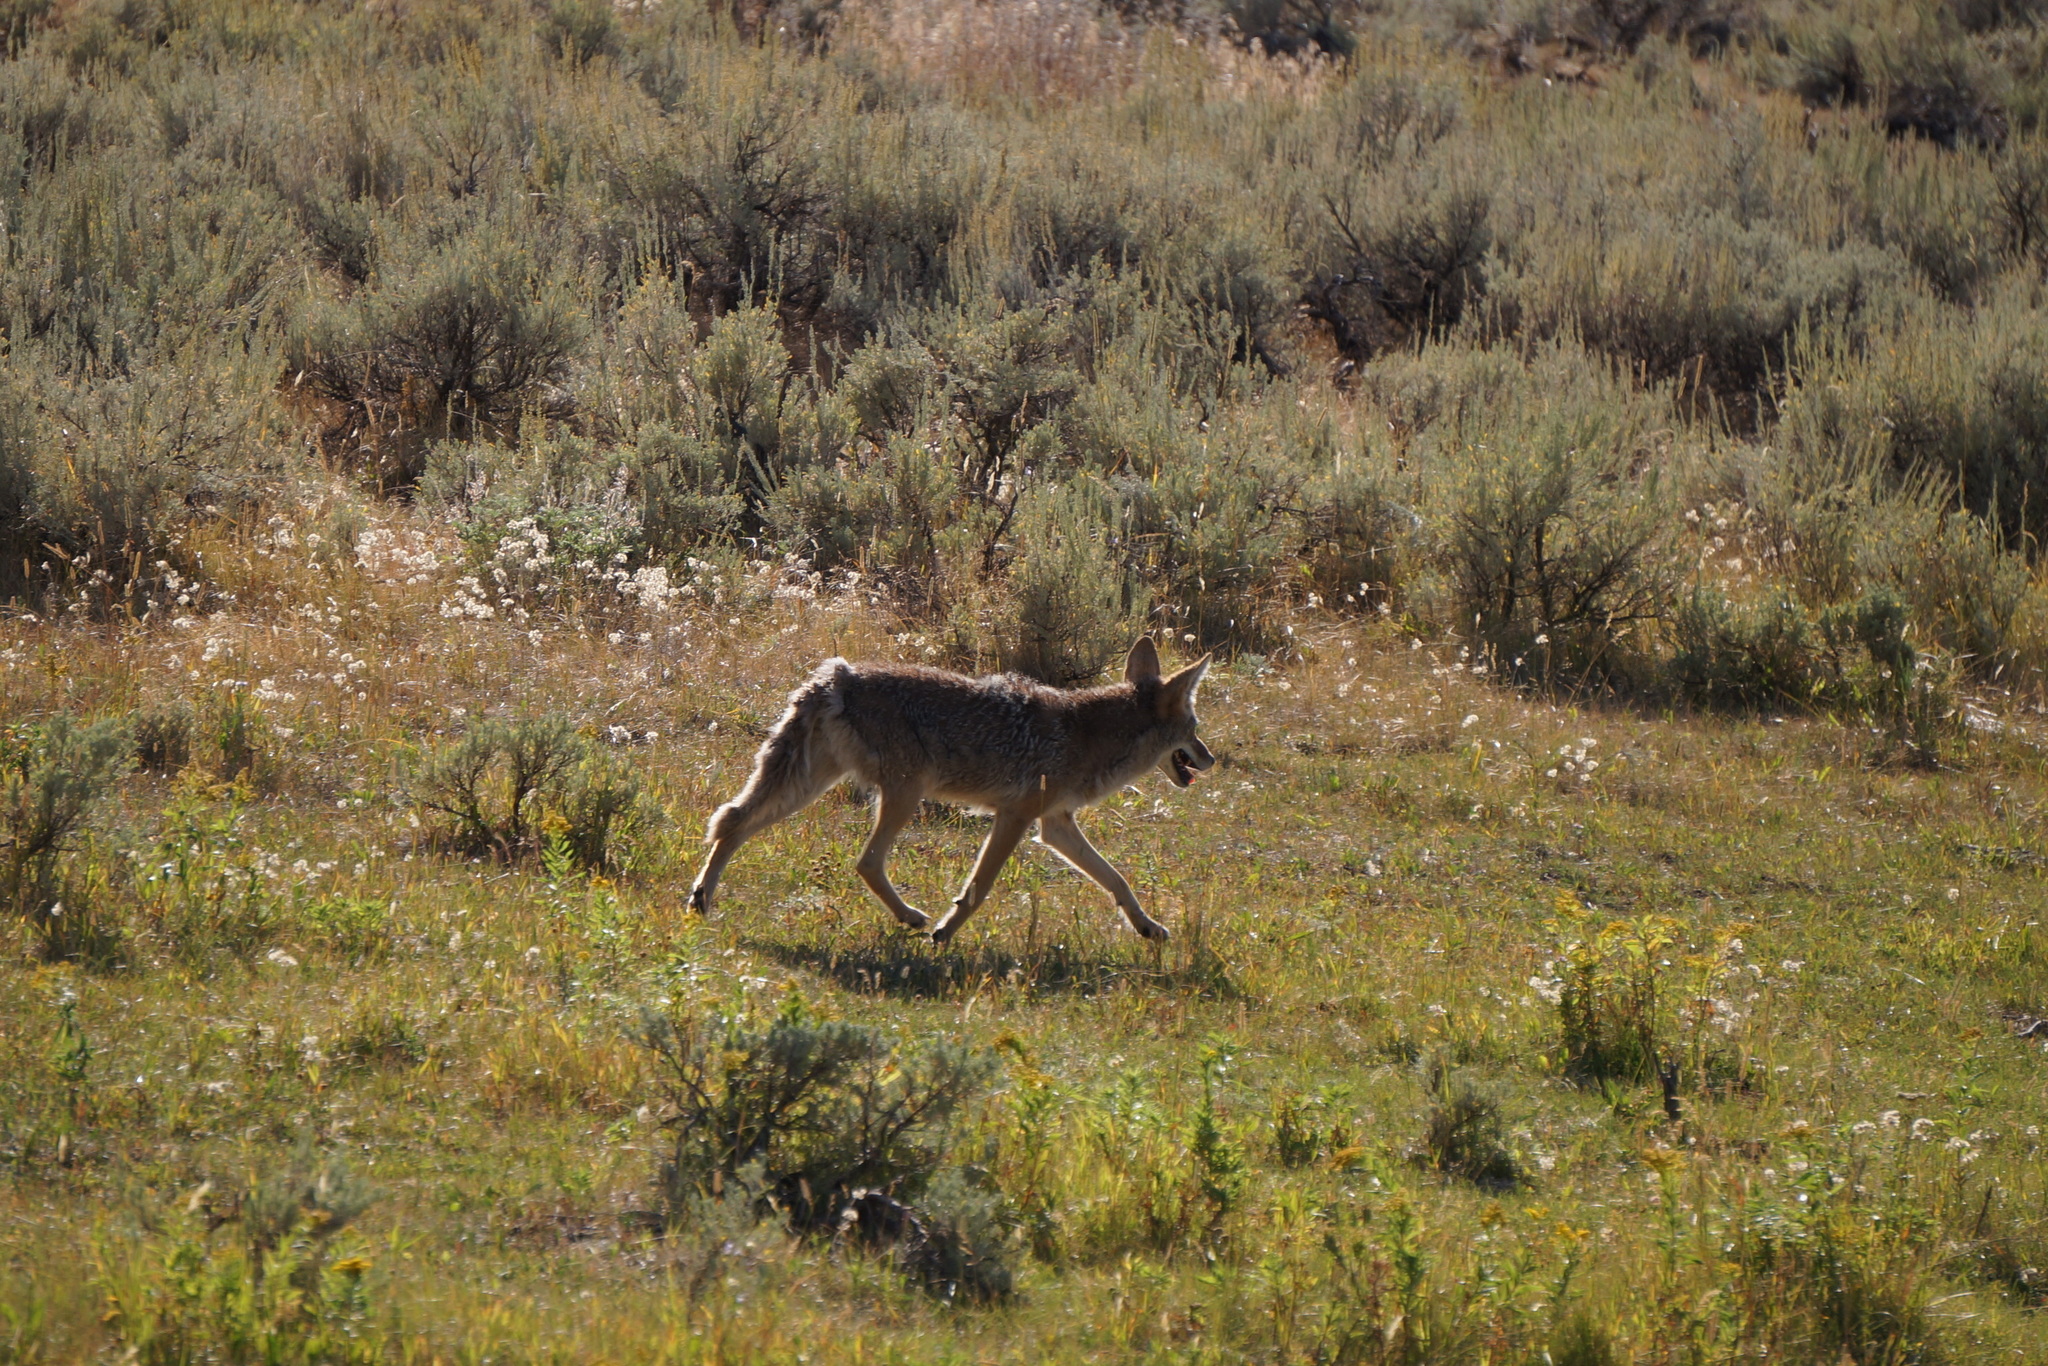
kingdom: Animalia
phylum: Chordata
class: Mammalia
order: Carnivora
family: Canidae
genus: Canis
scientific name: Canis latrans
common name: Coyote
